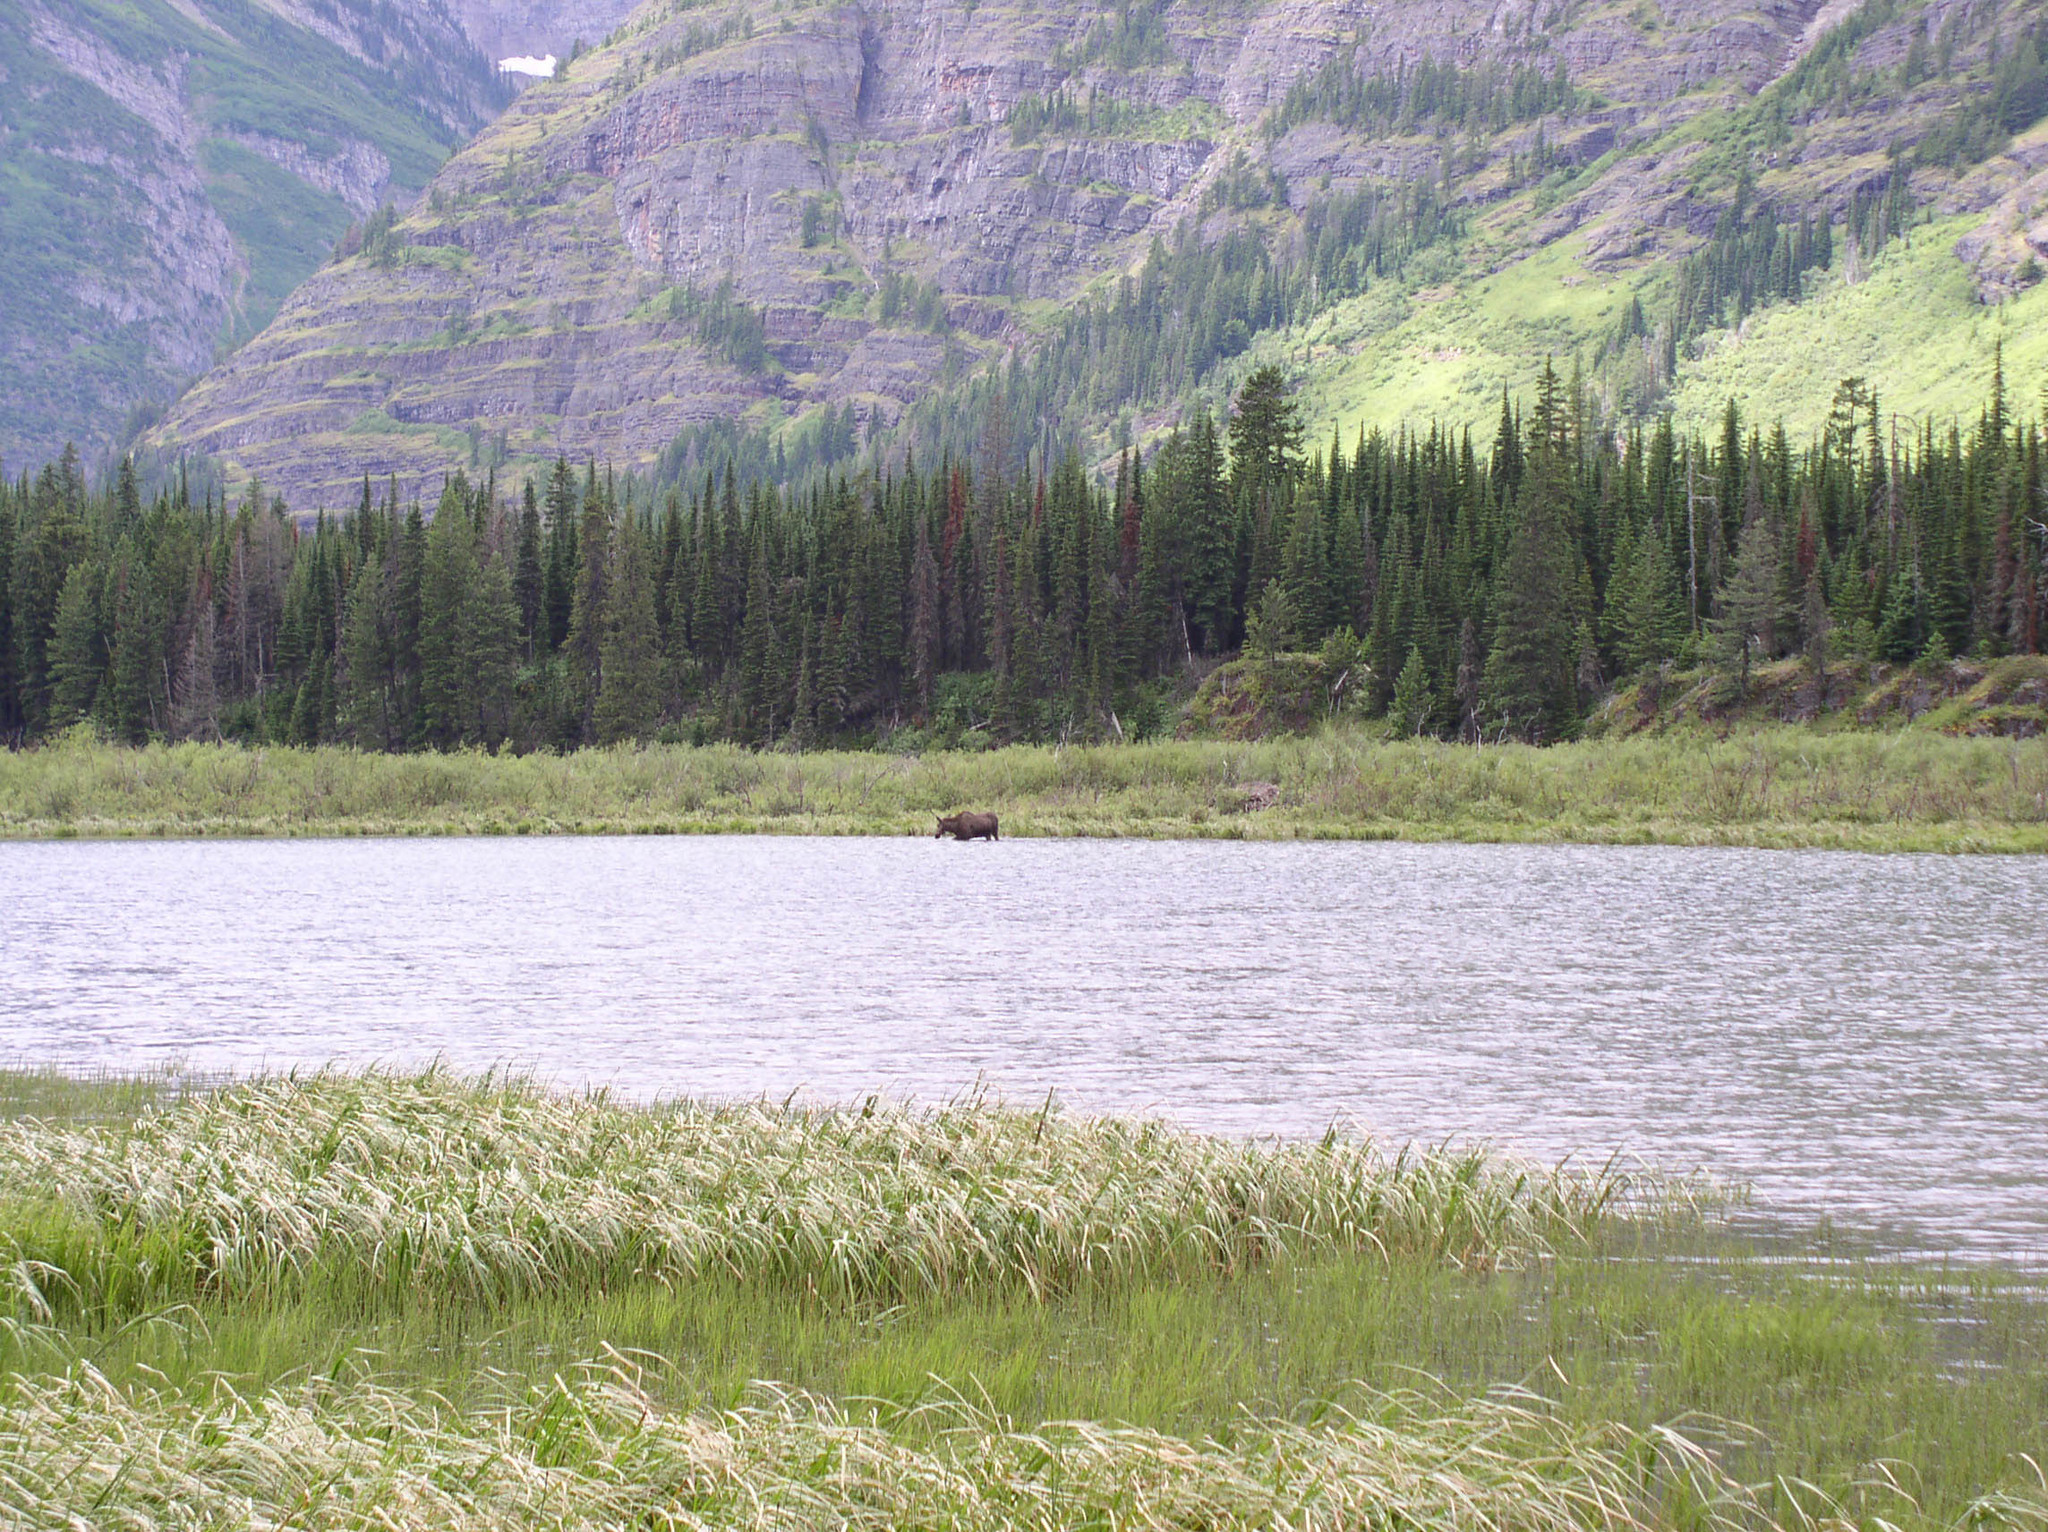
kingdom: Animalia
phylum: Chordata
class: Mammalia
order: Artiodactyla
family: Cervidae
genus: Alces
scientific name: Alces alces
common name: Moose
